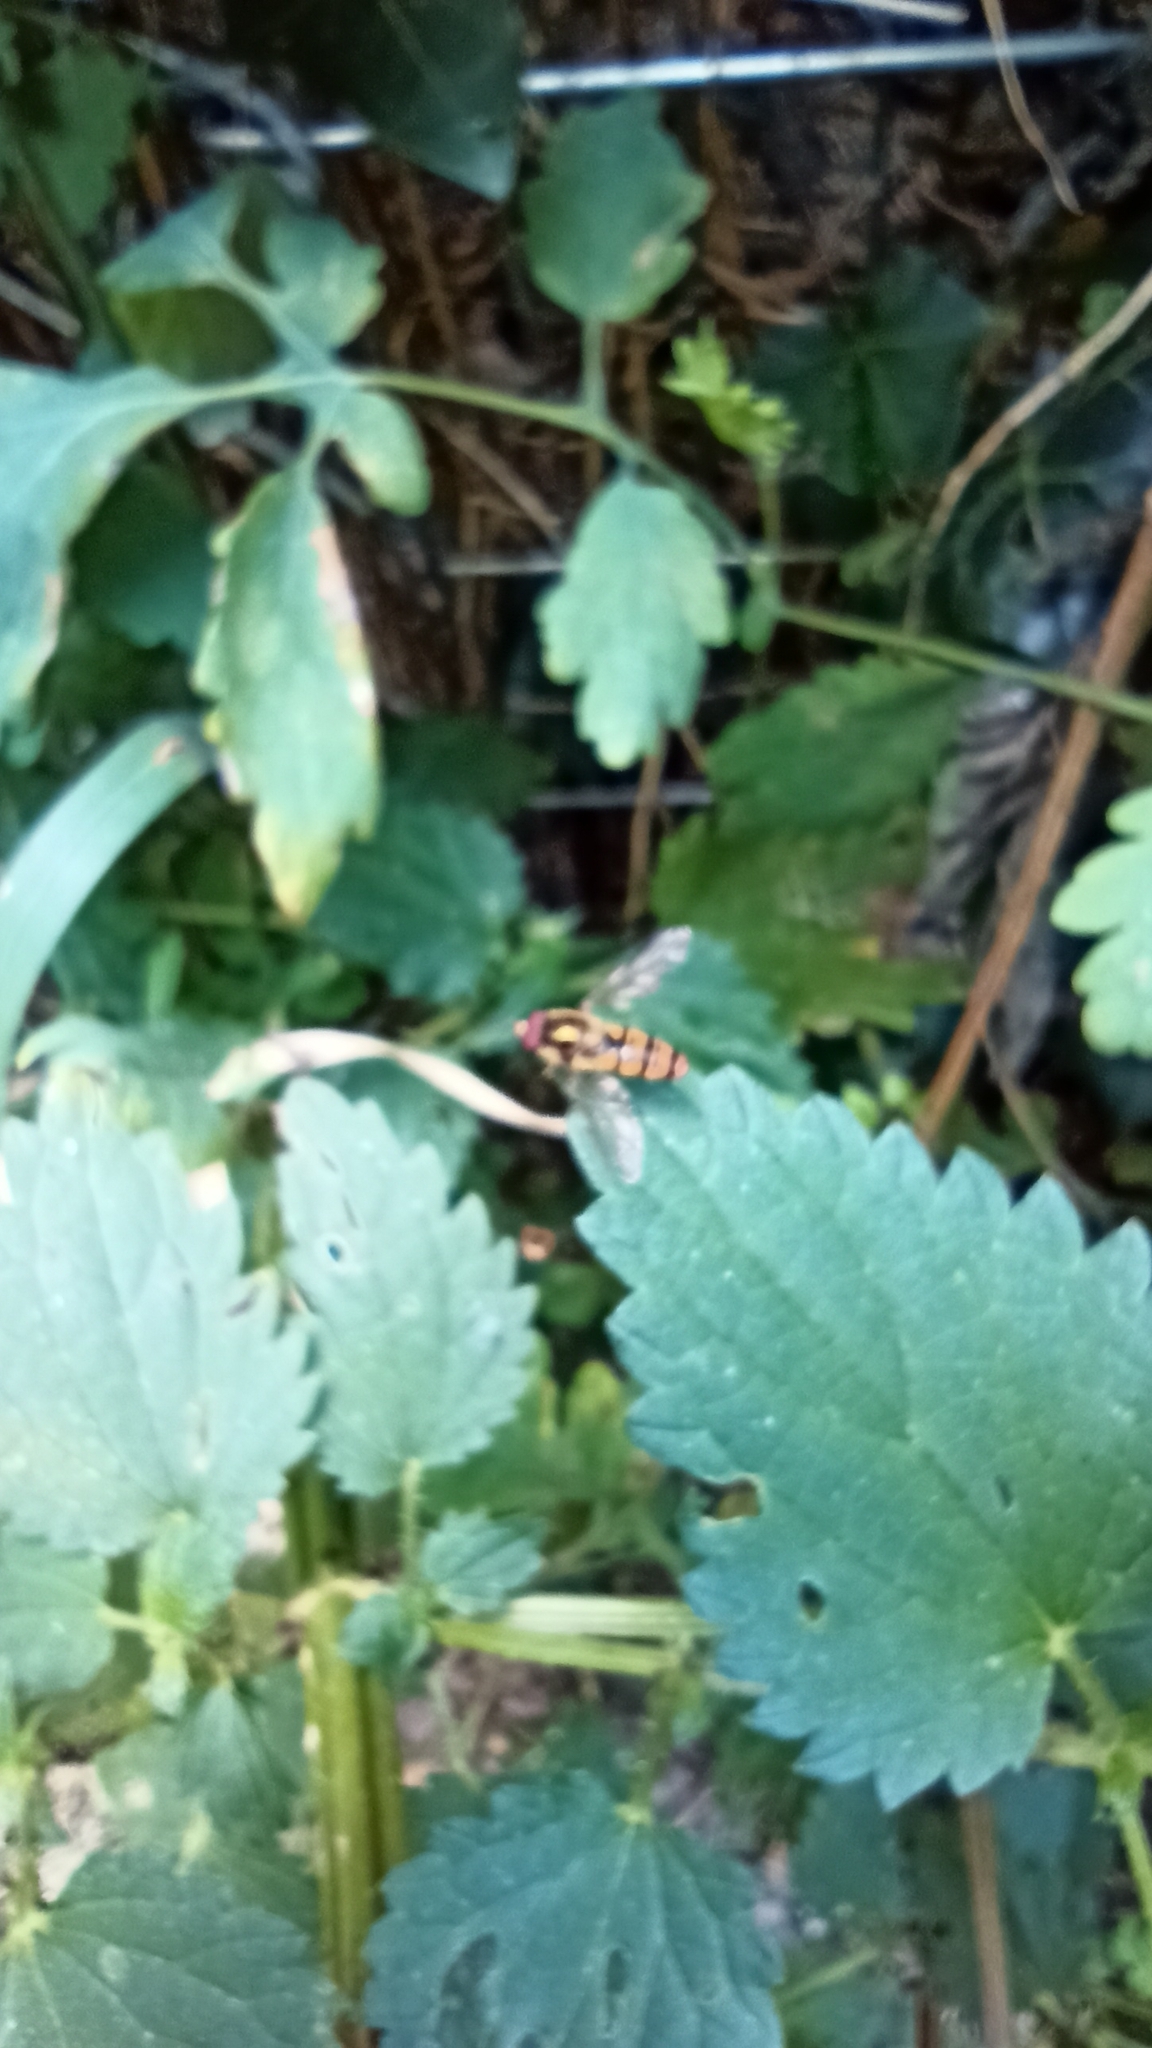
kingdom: Animalia
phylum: Arthropoda
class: Insecta
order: Diptera
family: Syrphidae
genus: Episyrphus
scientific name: Episyrphus balteatus
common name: Marmalade hoverfly
